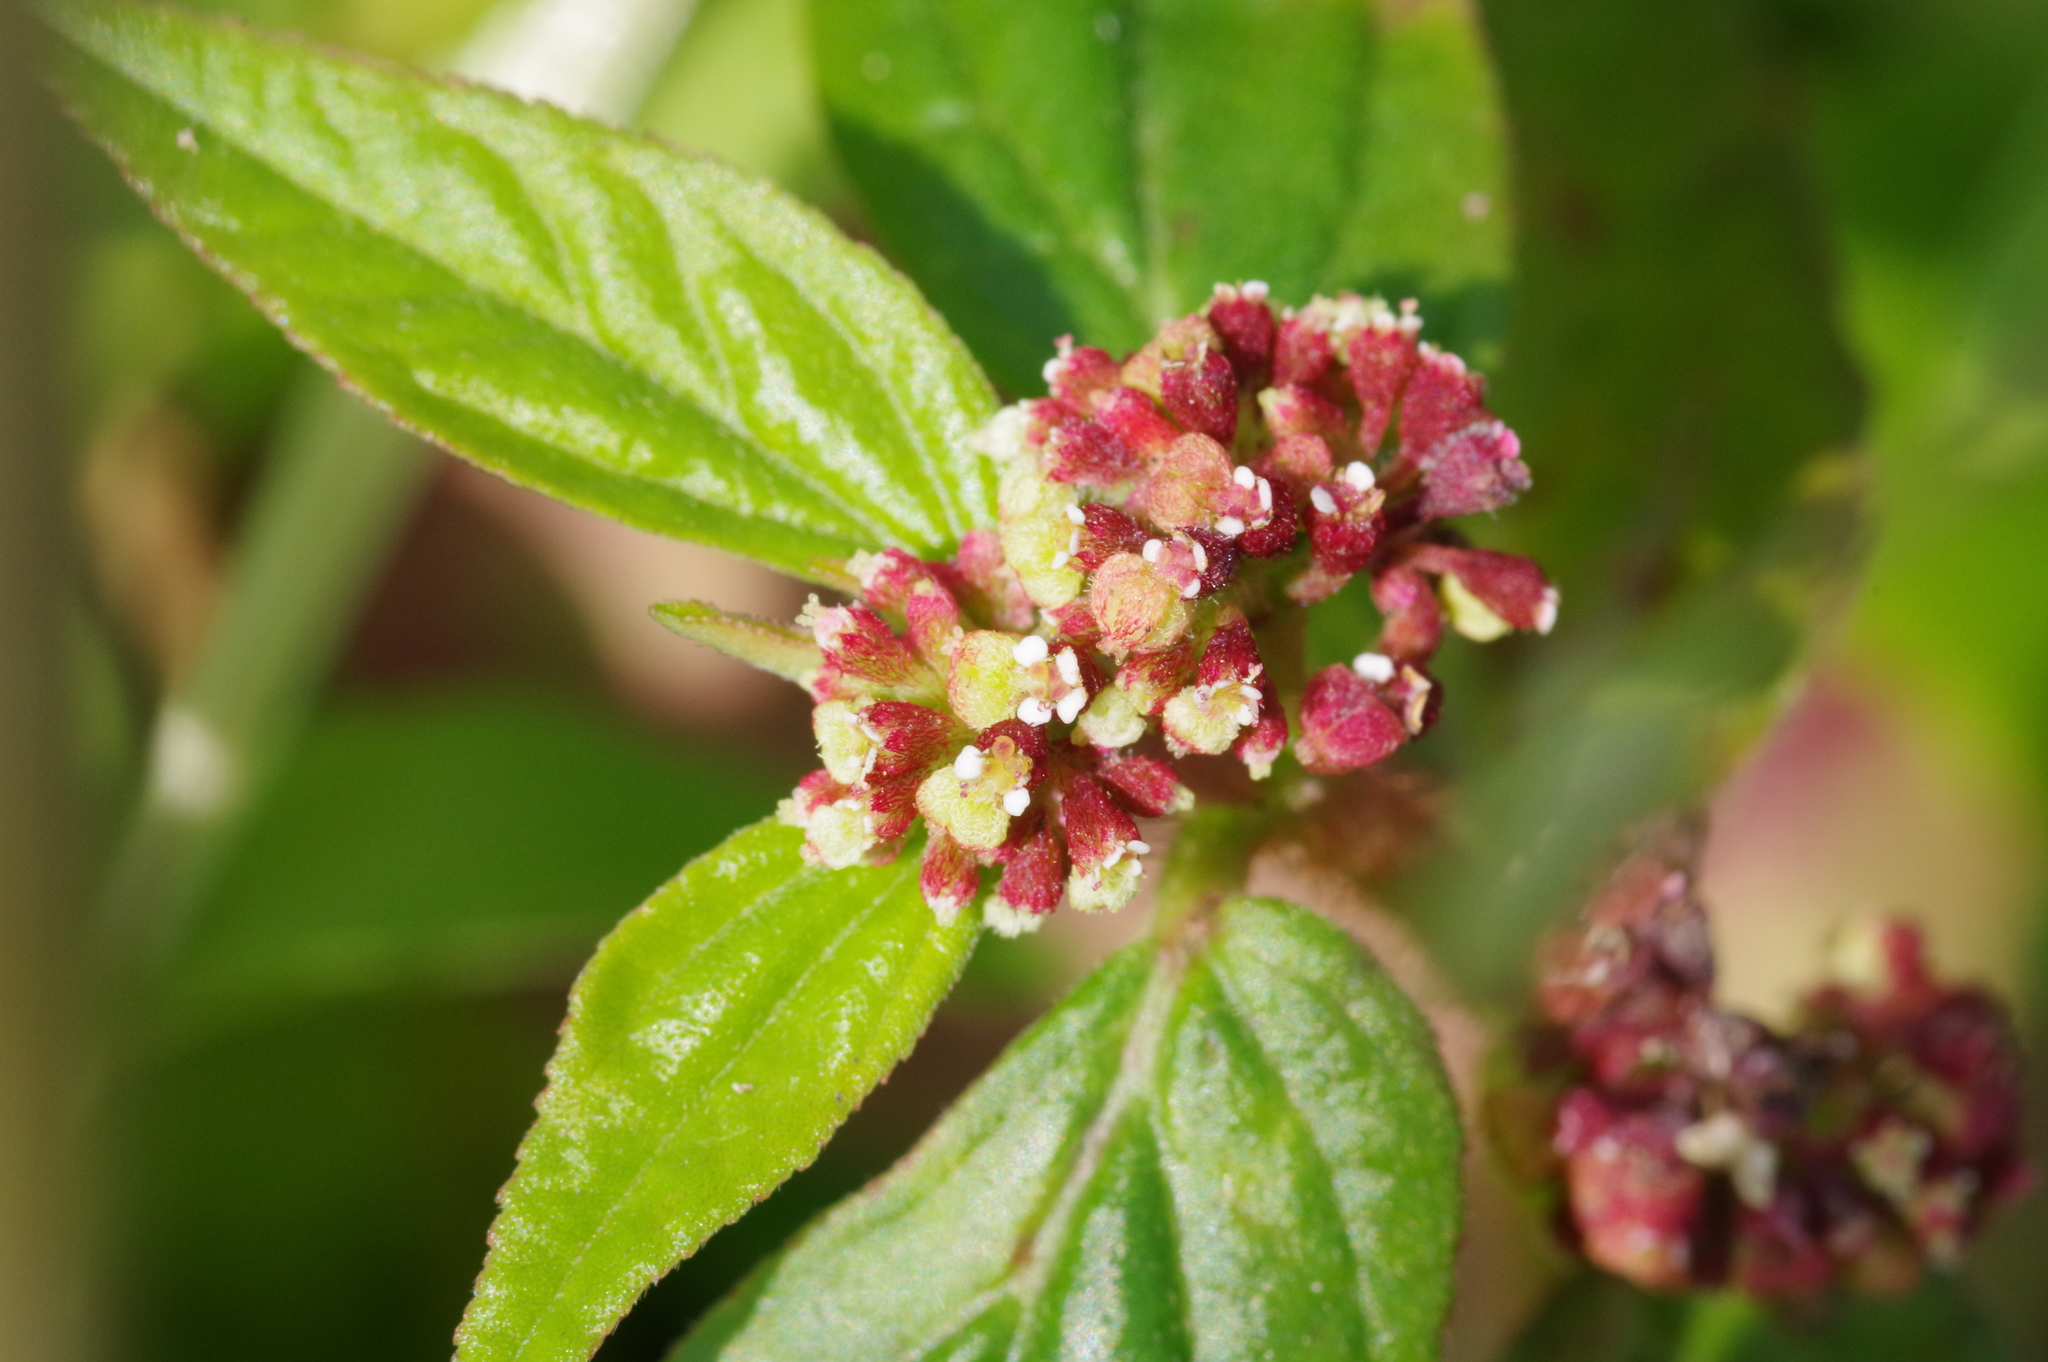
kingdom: Plantae
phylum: Tracheophyta
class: Magnoliopsida
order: Malpighiales
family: Euphorbiaceae
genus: Euphorbia
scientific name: Euphorbia hirta
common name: Pillpod sandmat
